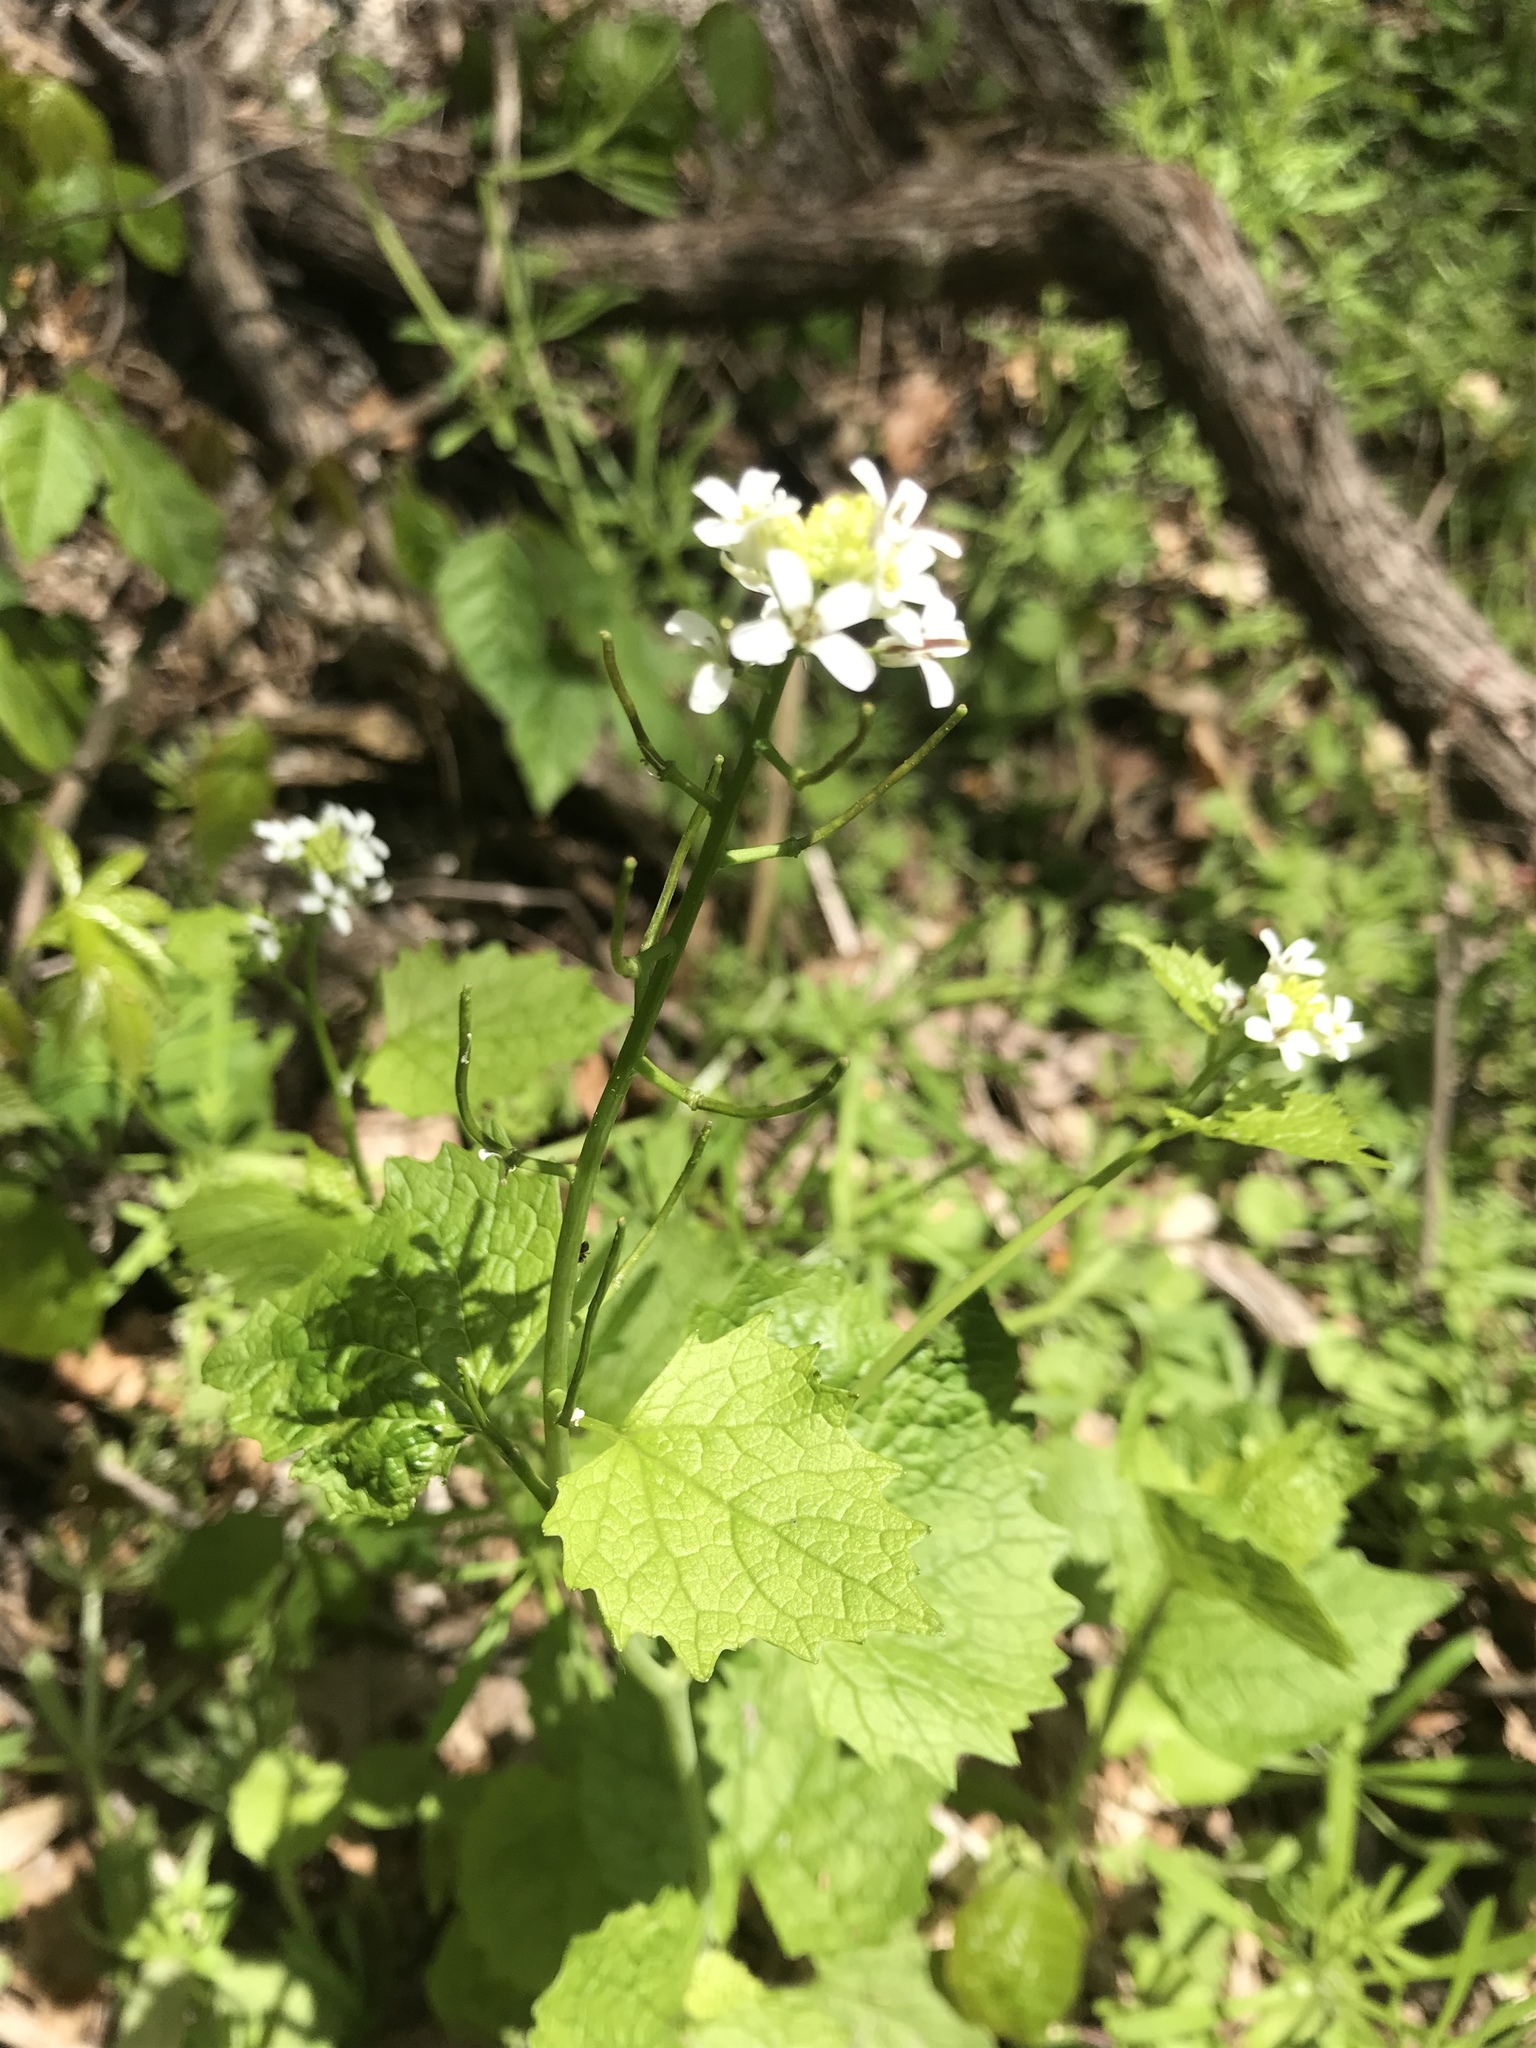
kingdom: Plantae
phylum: Tracheophyta
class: Magnoliopsida
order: Brassicales
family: Brassicaceae
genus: Alliaria
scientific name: Alliaria petiolata
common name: Garlic mustard
